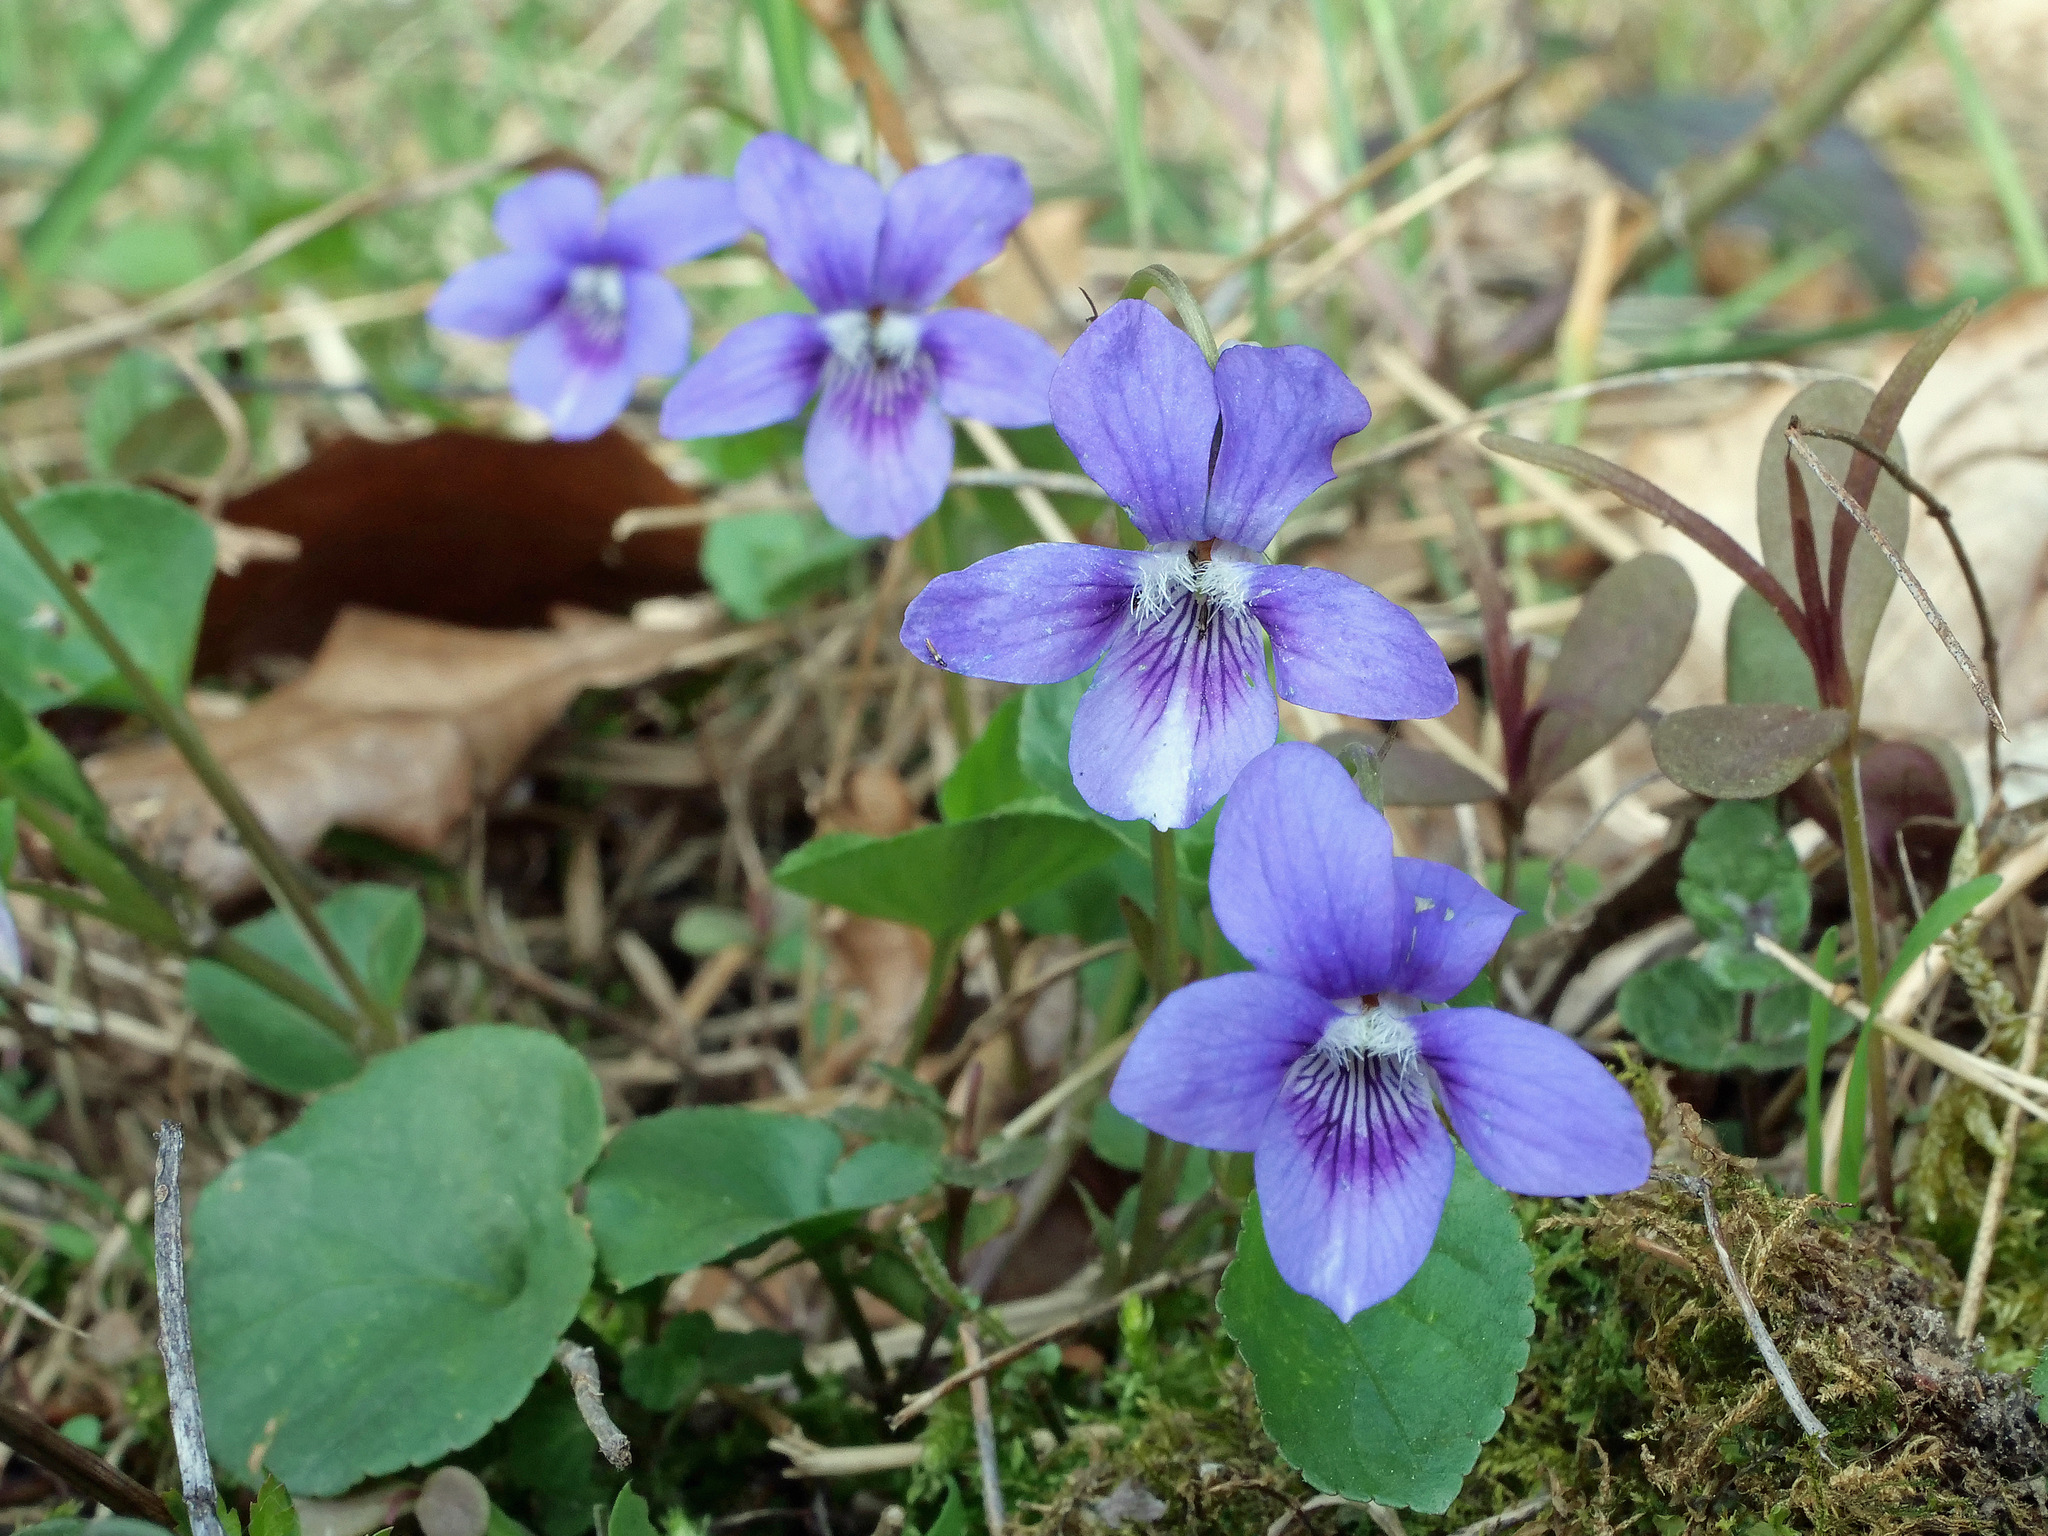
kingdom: Plantae
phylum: Tracheophyta
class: Magnoliopsida
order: Malpighiales
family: Violaceae
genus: Viola
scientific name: Viola riviniana
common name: Common dog-violet
